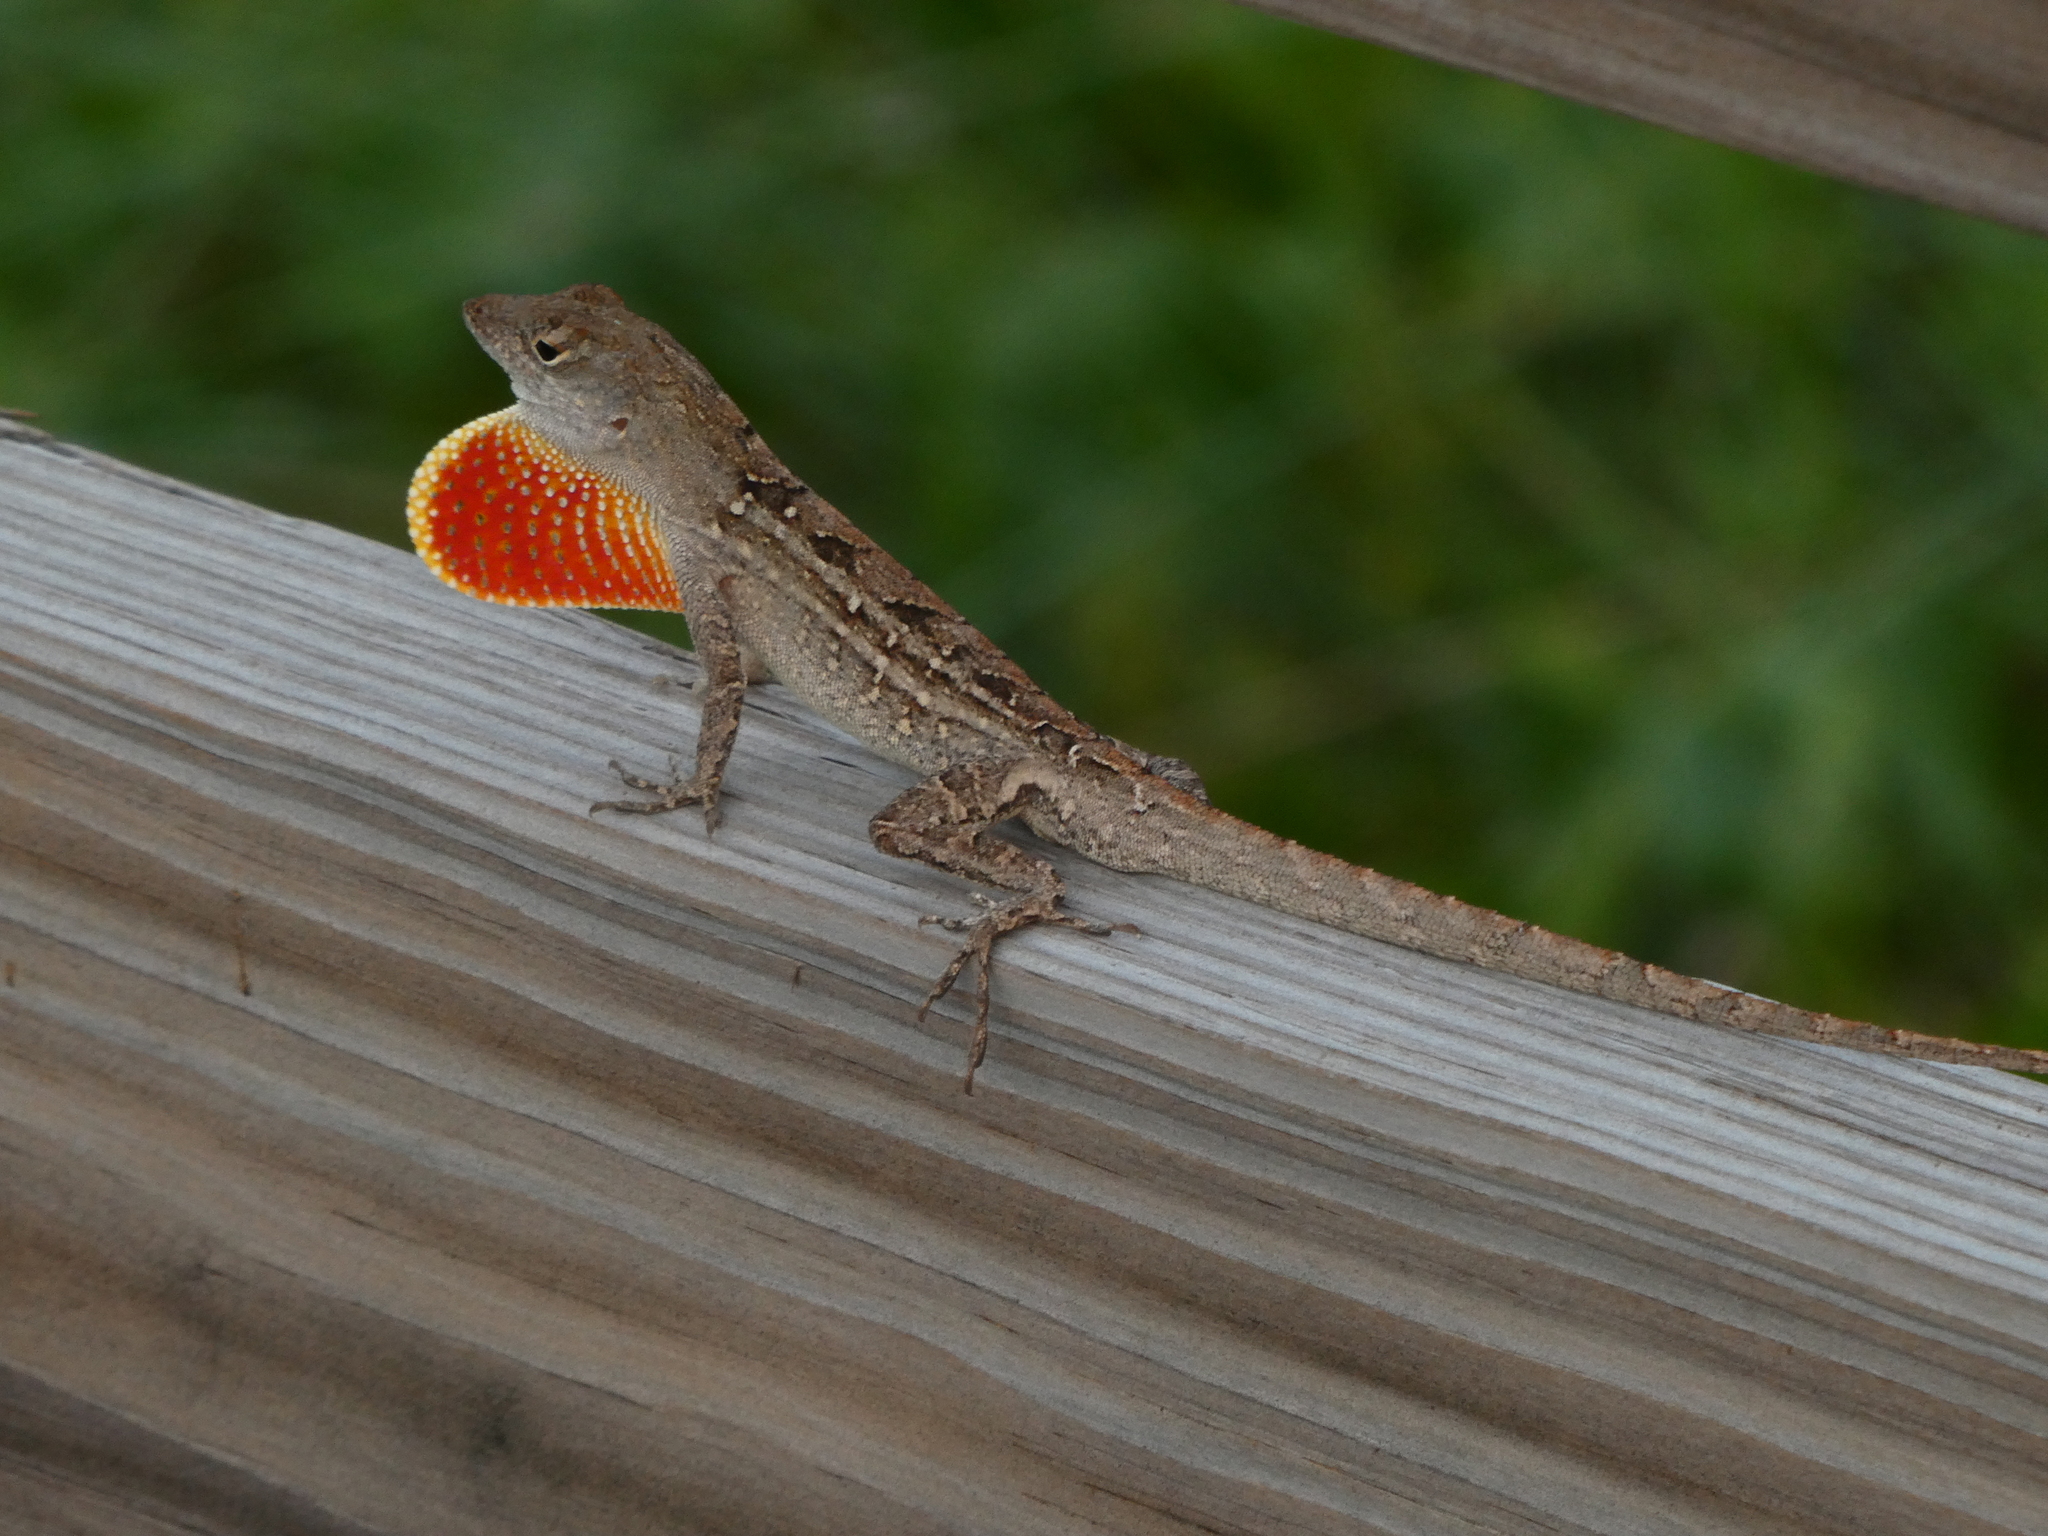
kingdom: Animalia
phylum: Chordata
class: Squamata
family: Dactyloidae
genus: Anolis
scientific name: Anolis sagrei
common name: Brown anole
